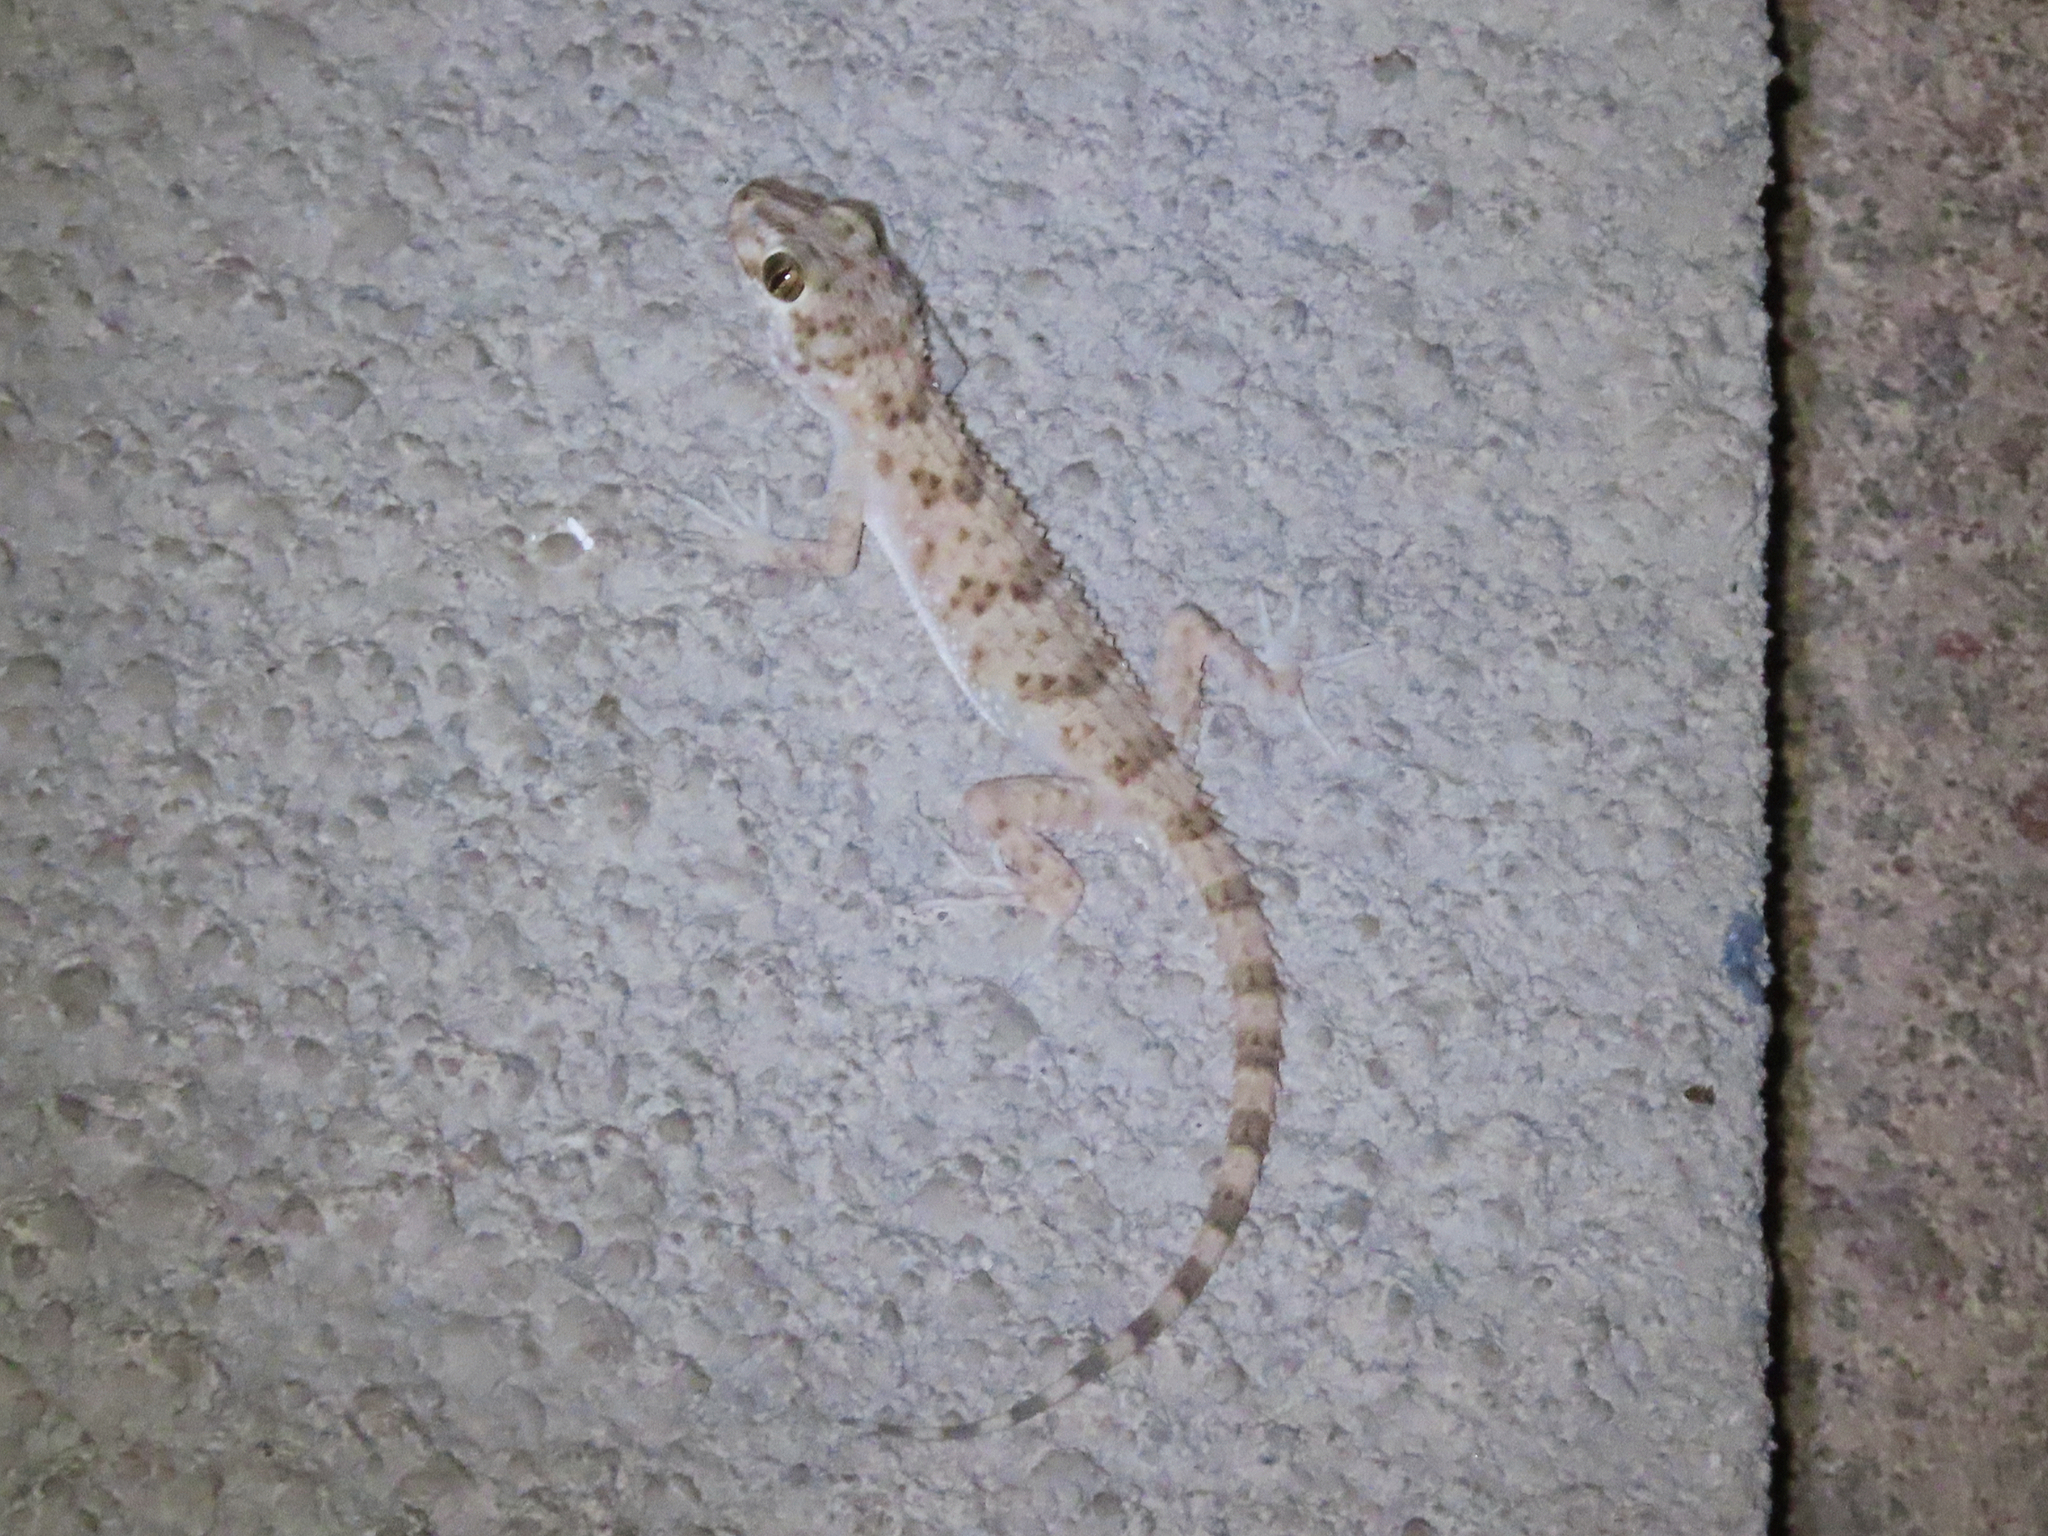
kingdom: Animalia
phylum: Chordata
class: Squamata
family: Gekkonidae
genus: Tenuidactylus
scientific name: Tenuidactylus caspius
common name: Caspian bent-toed gecko
